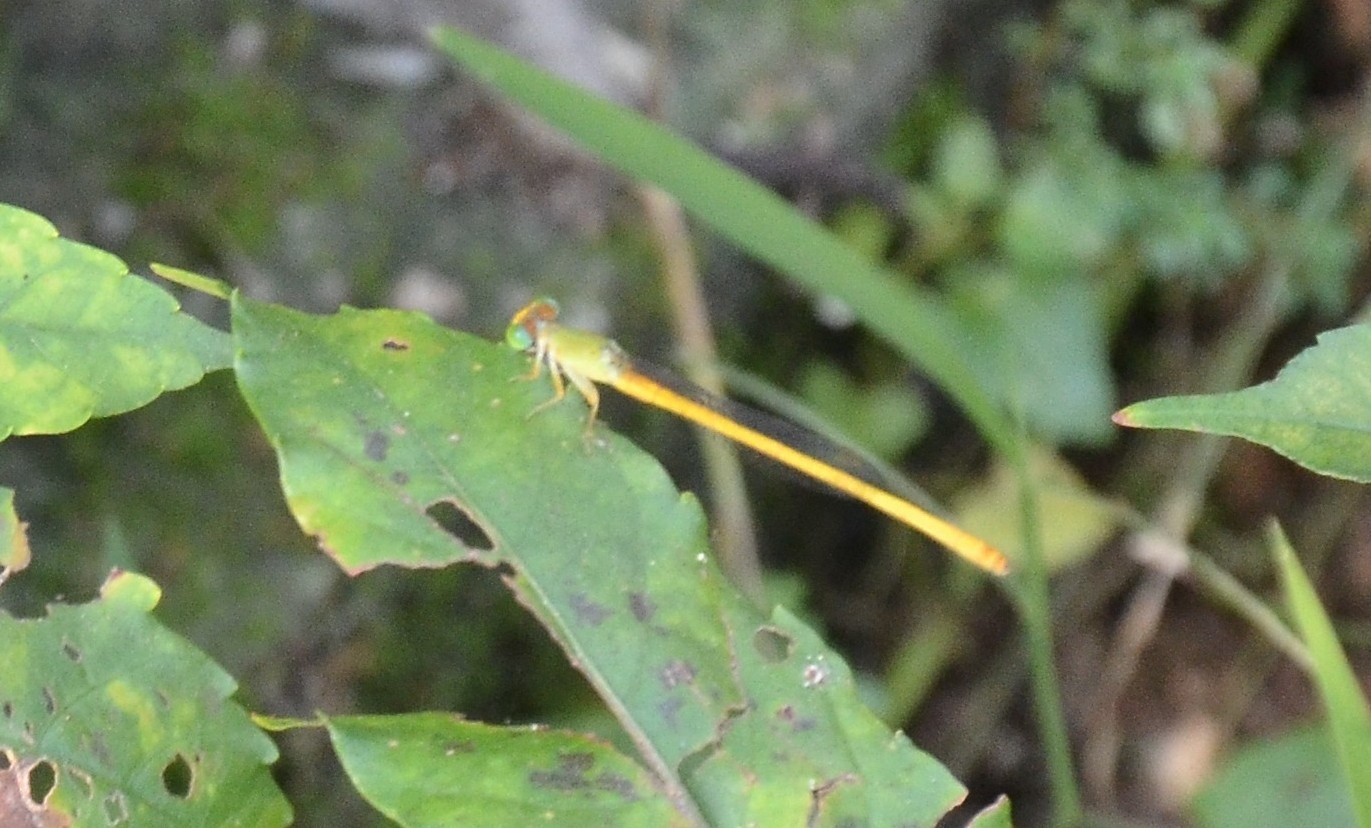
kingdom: Animalia
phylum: Arthropoda
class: Insecta
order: Odonata
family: Coenagrionidae
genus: Ceriagrion
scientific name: Ceriagrion coromandelianum
